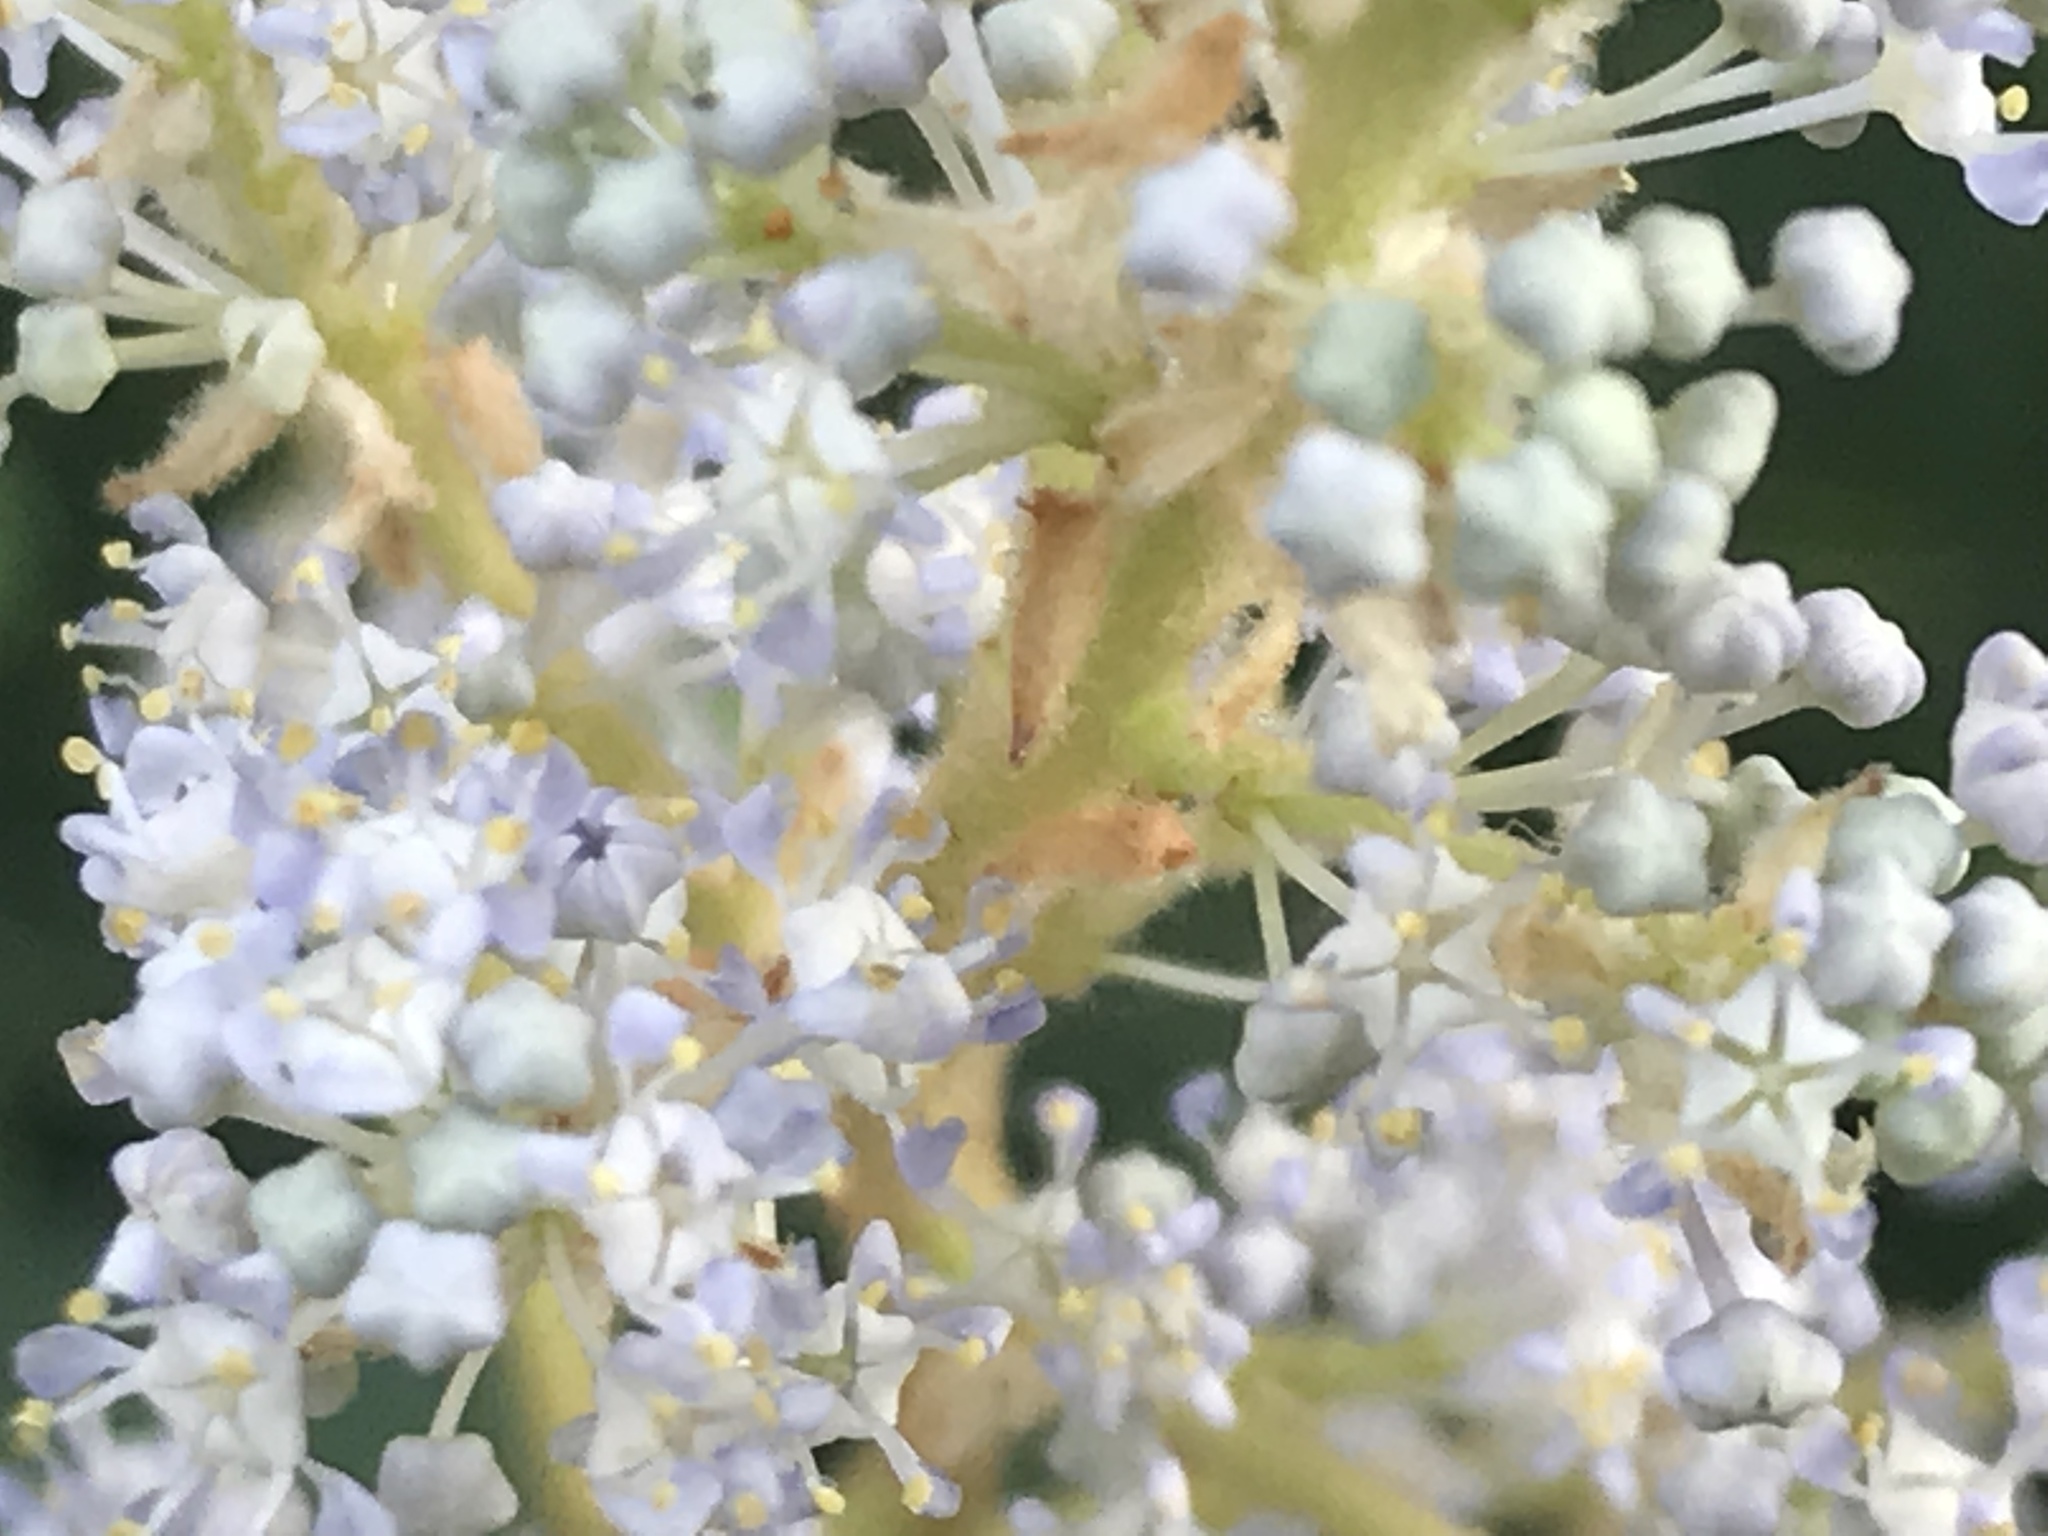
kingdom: Plantae
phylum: Tracheophyta
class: Magnoliopsida
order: Rosales
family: Rhamnaceae
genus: Ceanothus
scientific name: Ceanothus caeruleus
